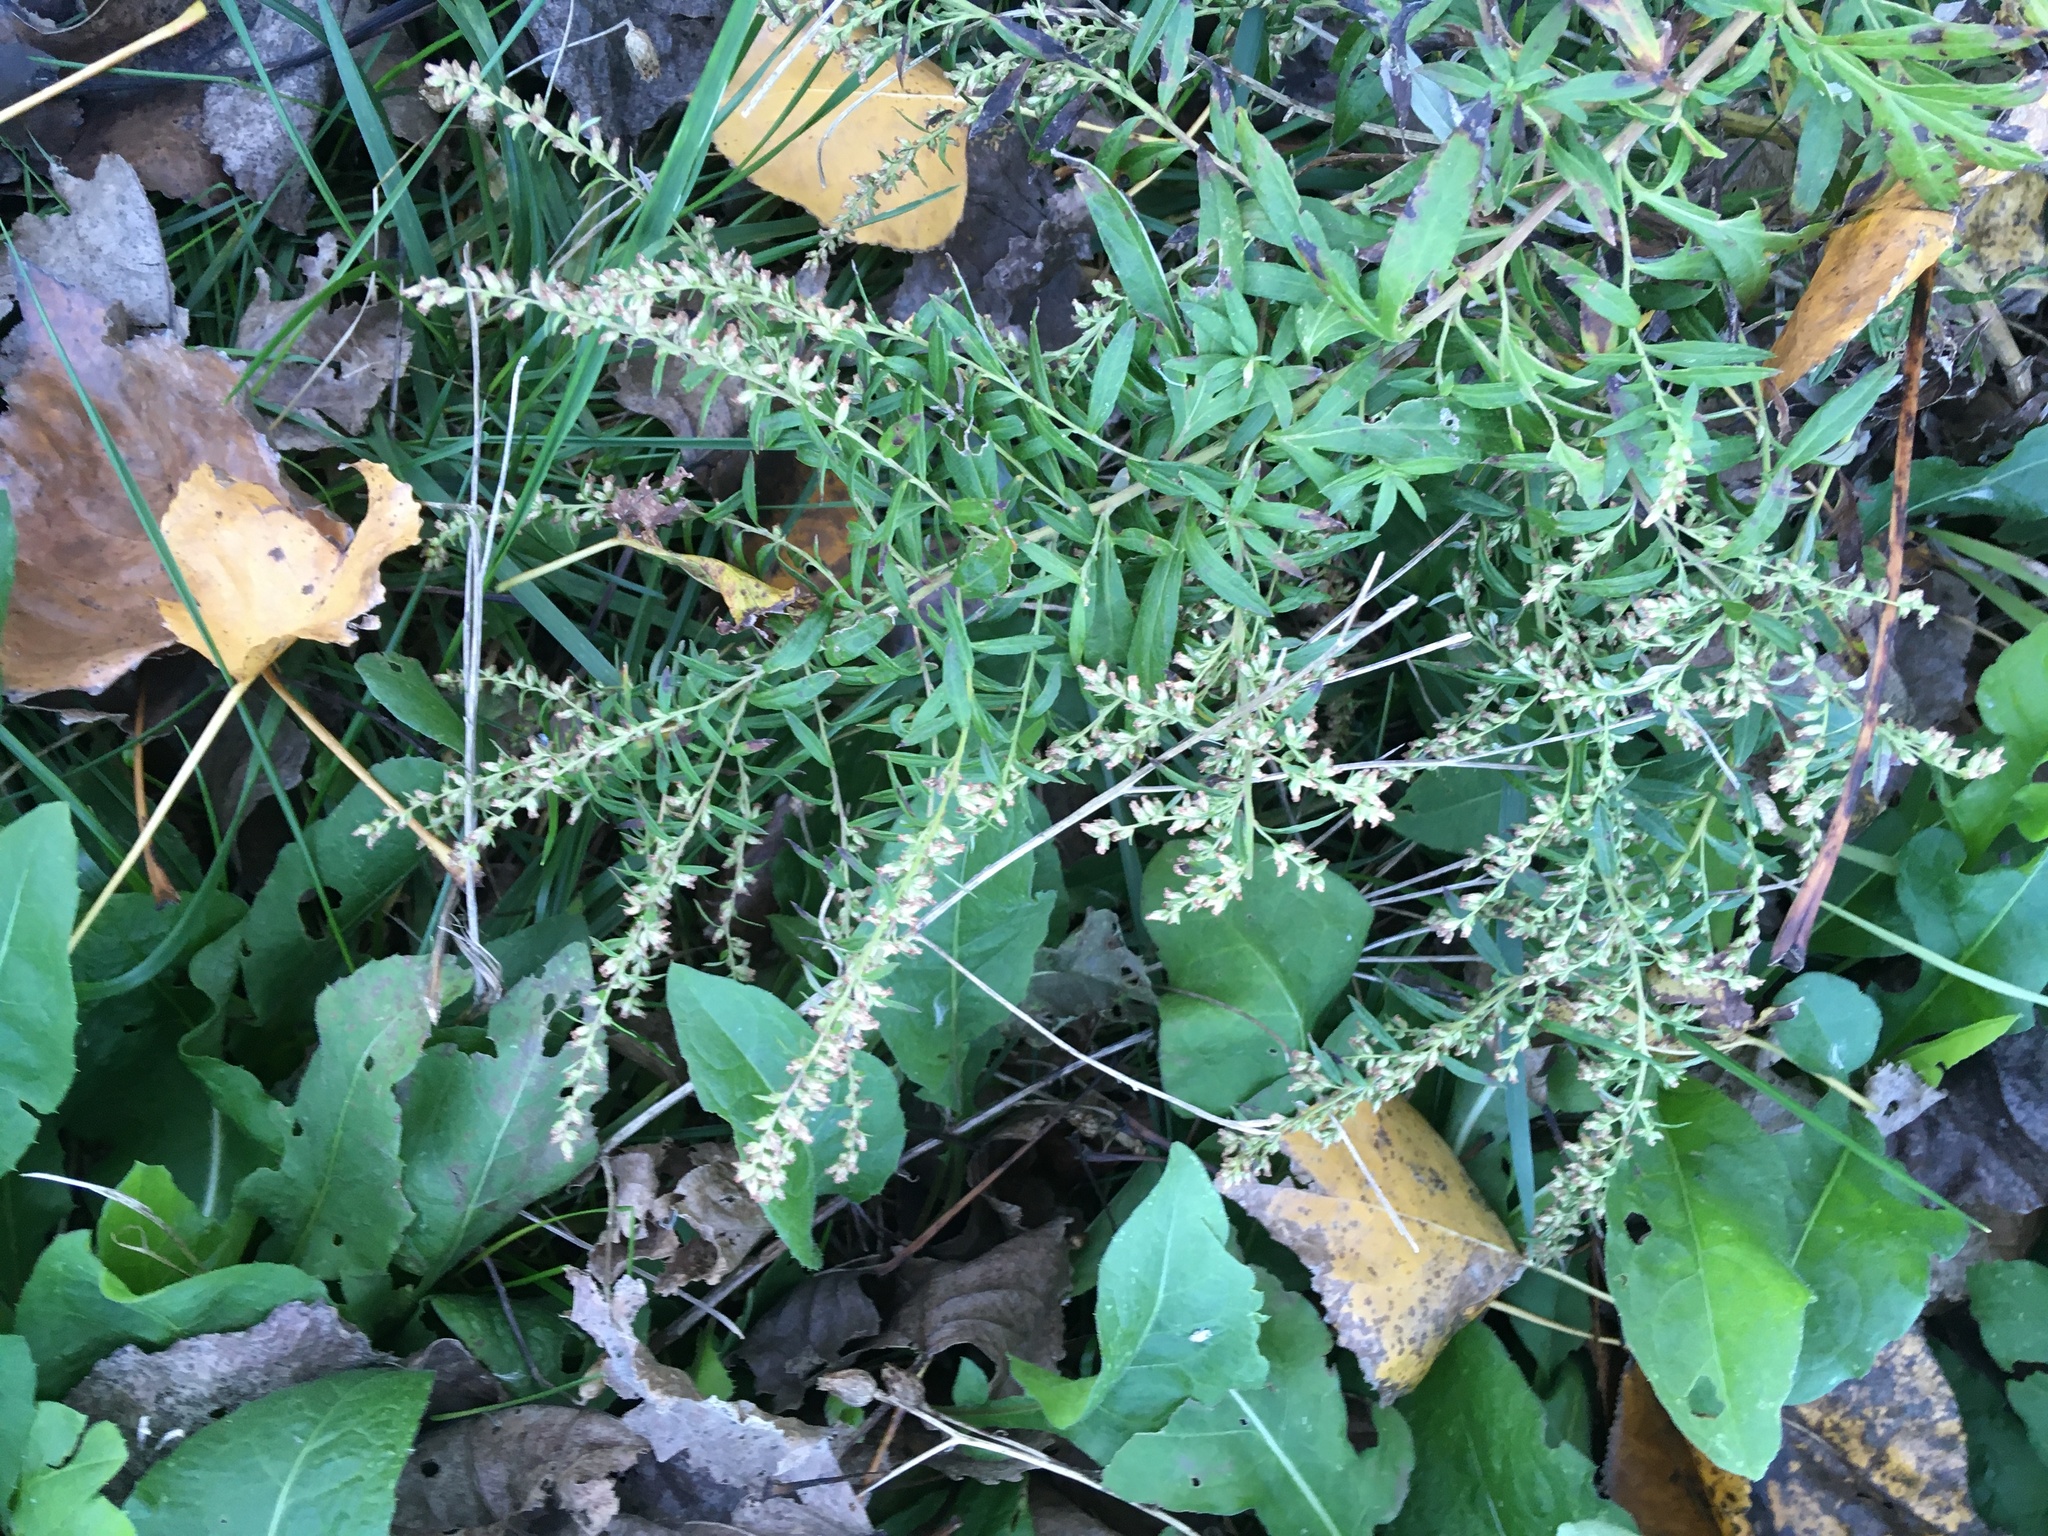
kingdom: Plantae
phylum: Tracheophyta
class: Magnoliopsida
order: Asterales
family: Asteraceae
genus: Artemisia
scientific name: Artemisia vulgaris
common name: Mugwort
